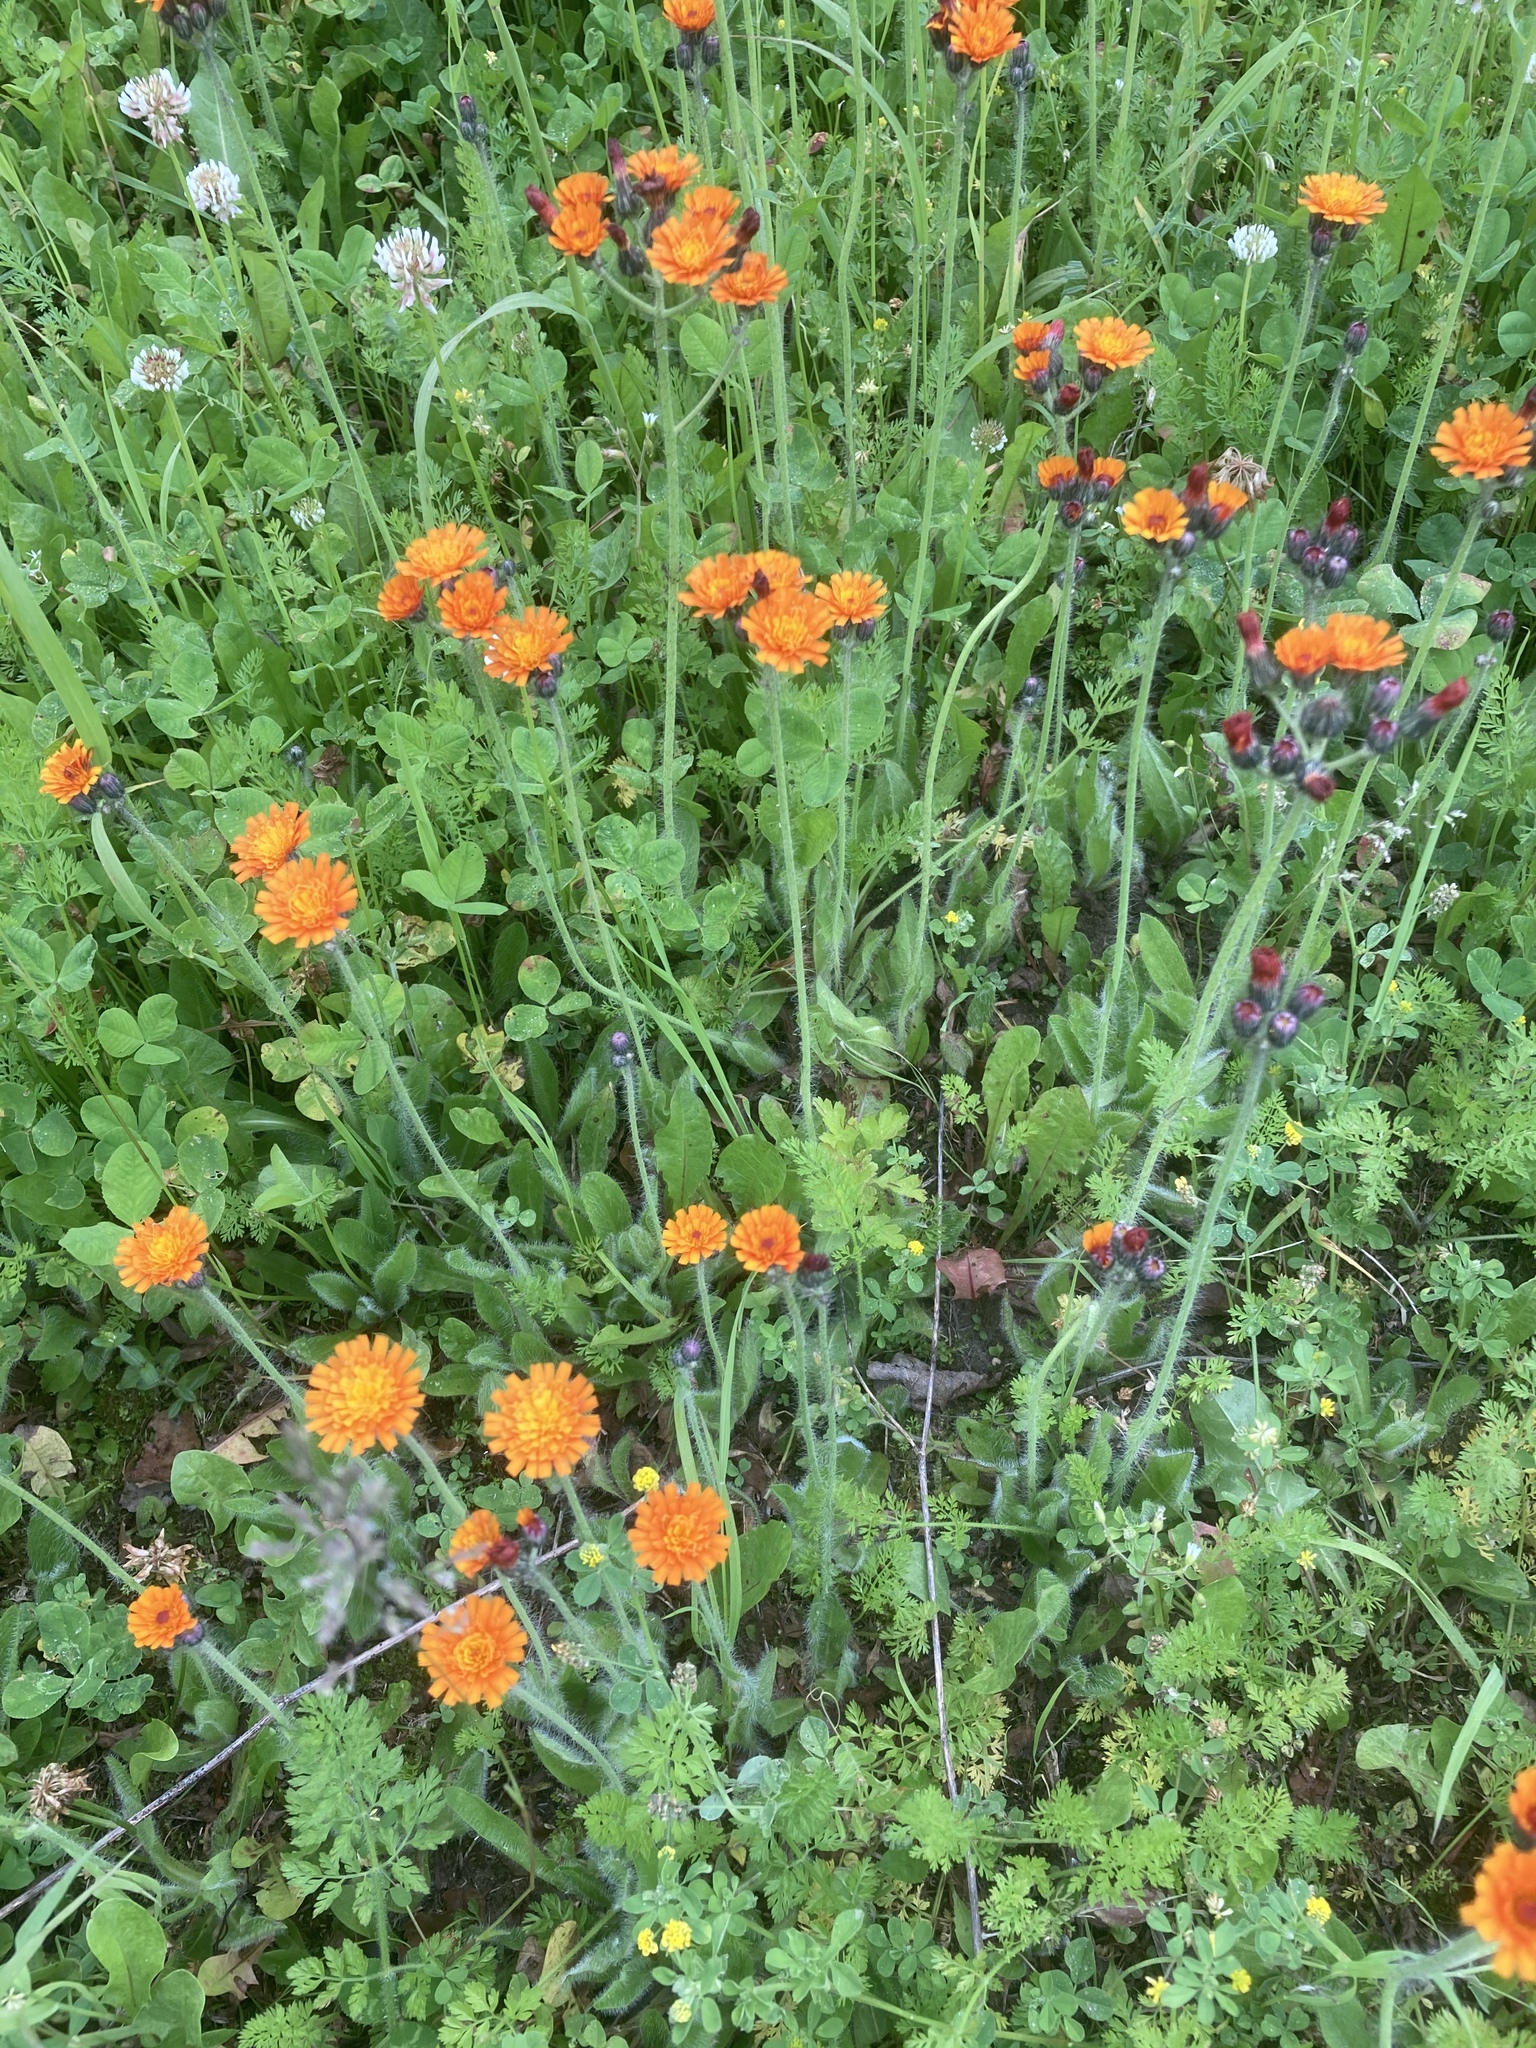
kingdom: Plantae
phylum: Tracheophyta
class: Magnoliopsida
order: Asterales
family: Asteraceae
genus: Pilosella
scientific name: Pilosella aurantiaca
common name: Fox-and-cubs
